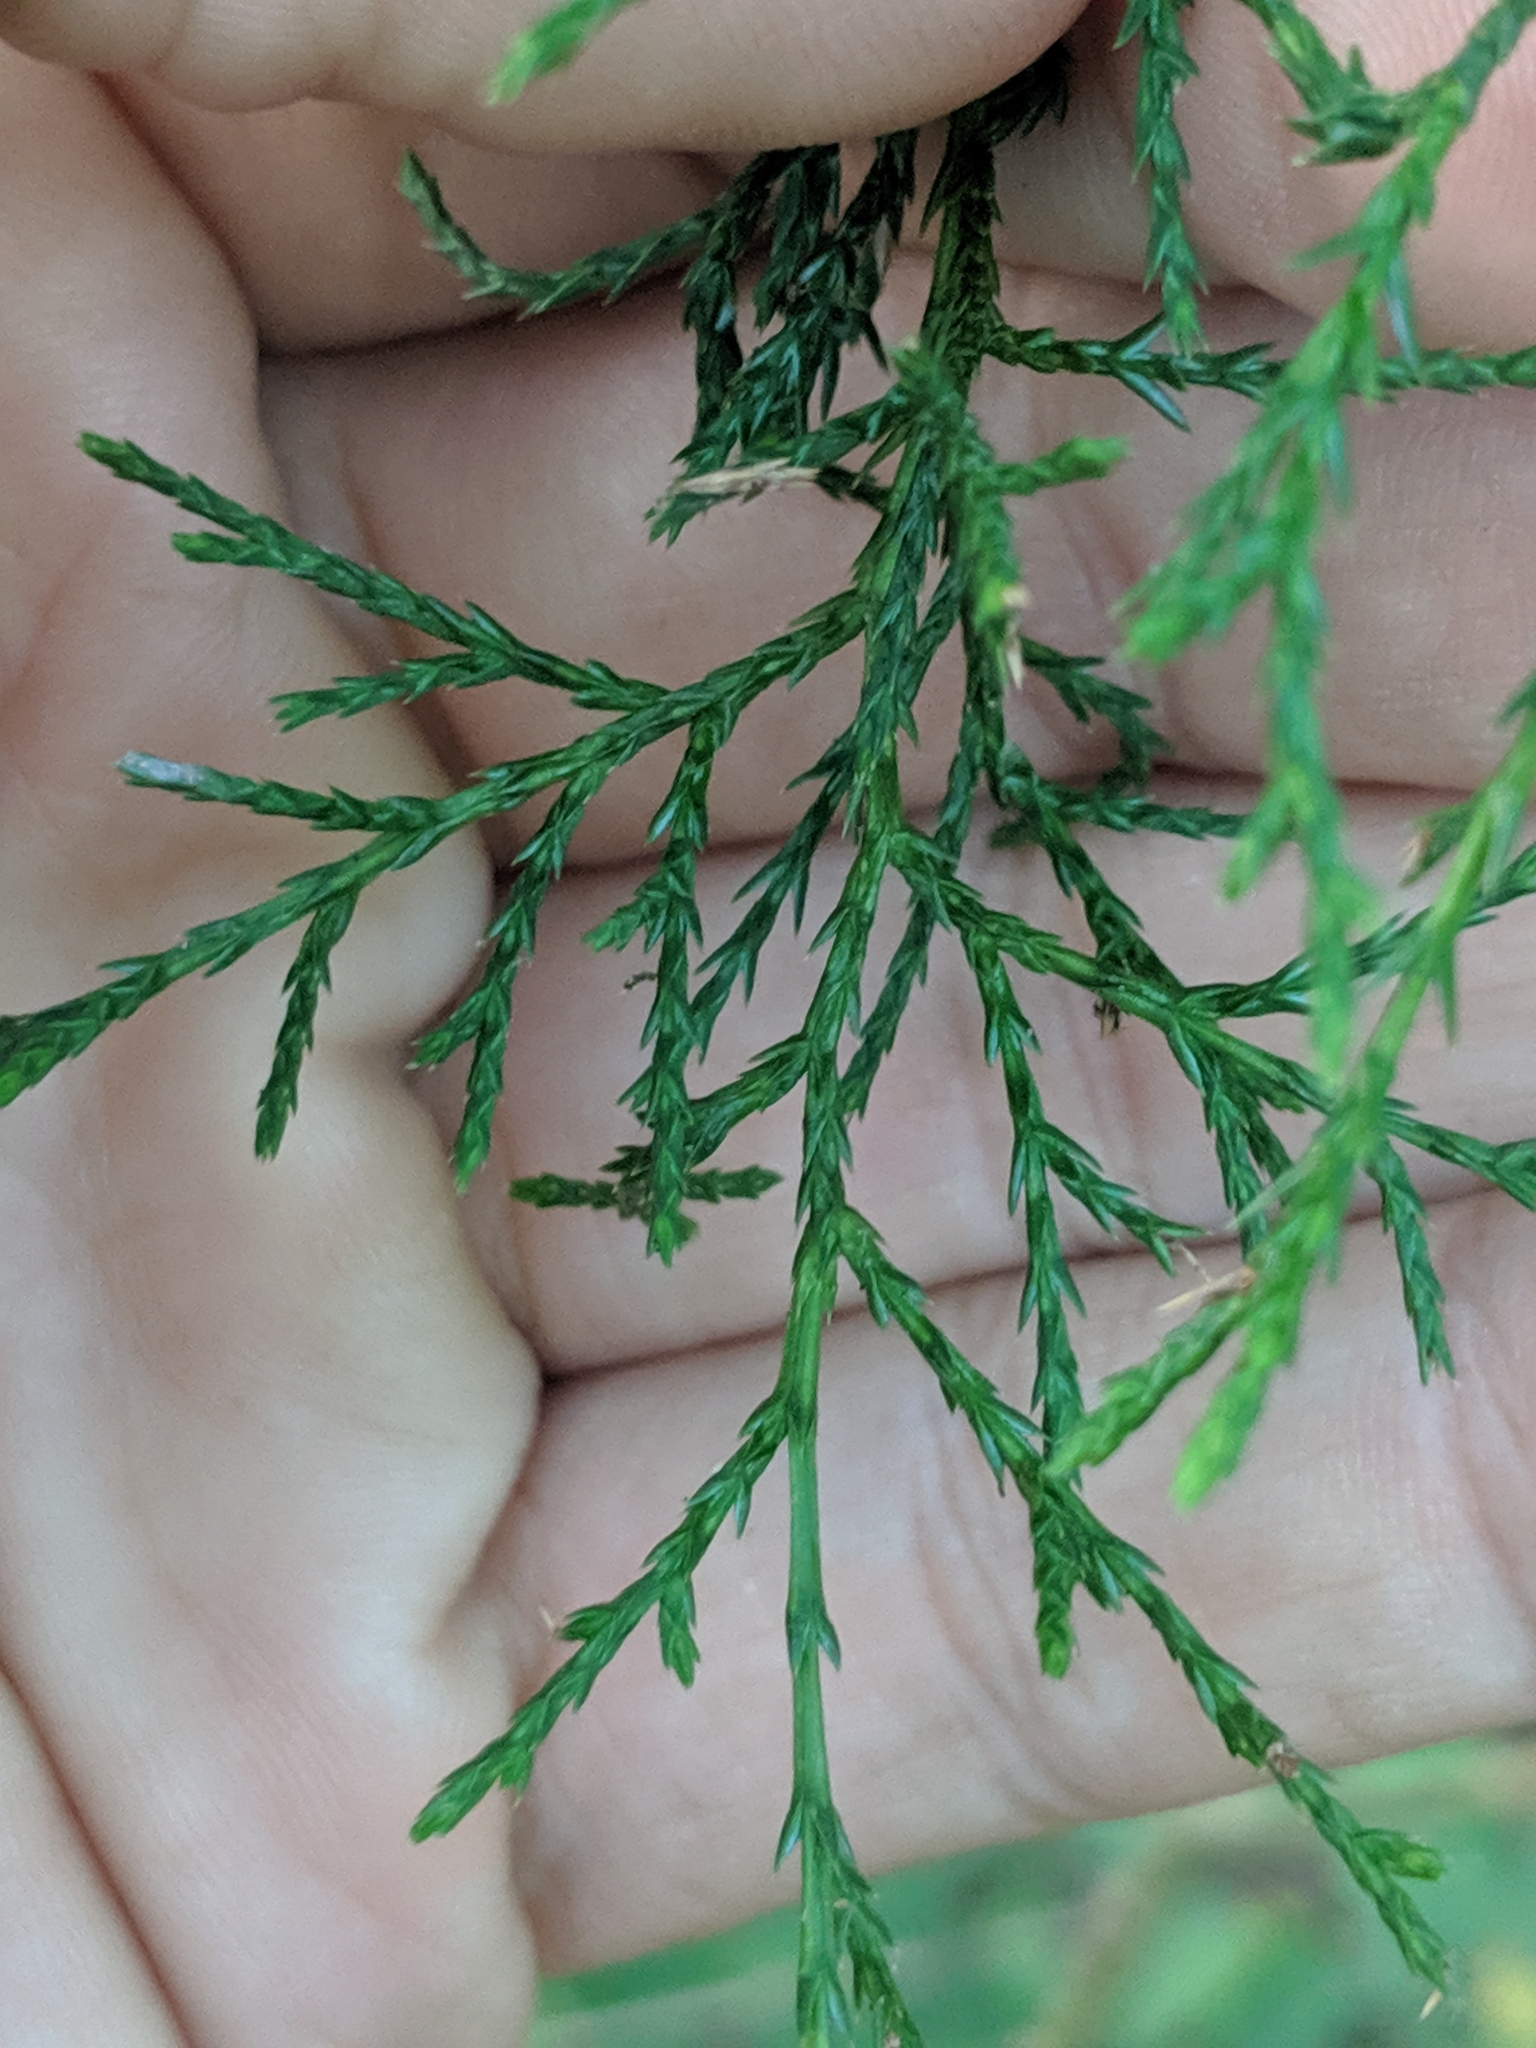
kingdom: Plantae
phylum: Tracheophyta
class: Pinopsida
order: Pinales
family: Cupressaceae
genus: Juniperus
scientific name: Juniperus virginiana
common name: Red juniper
